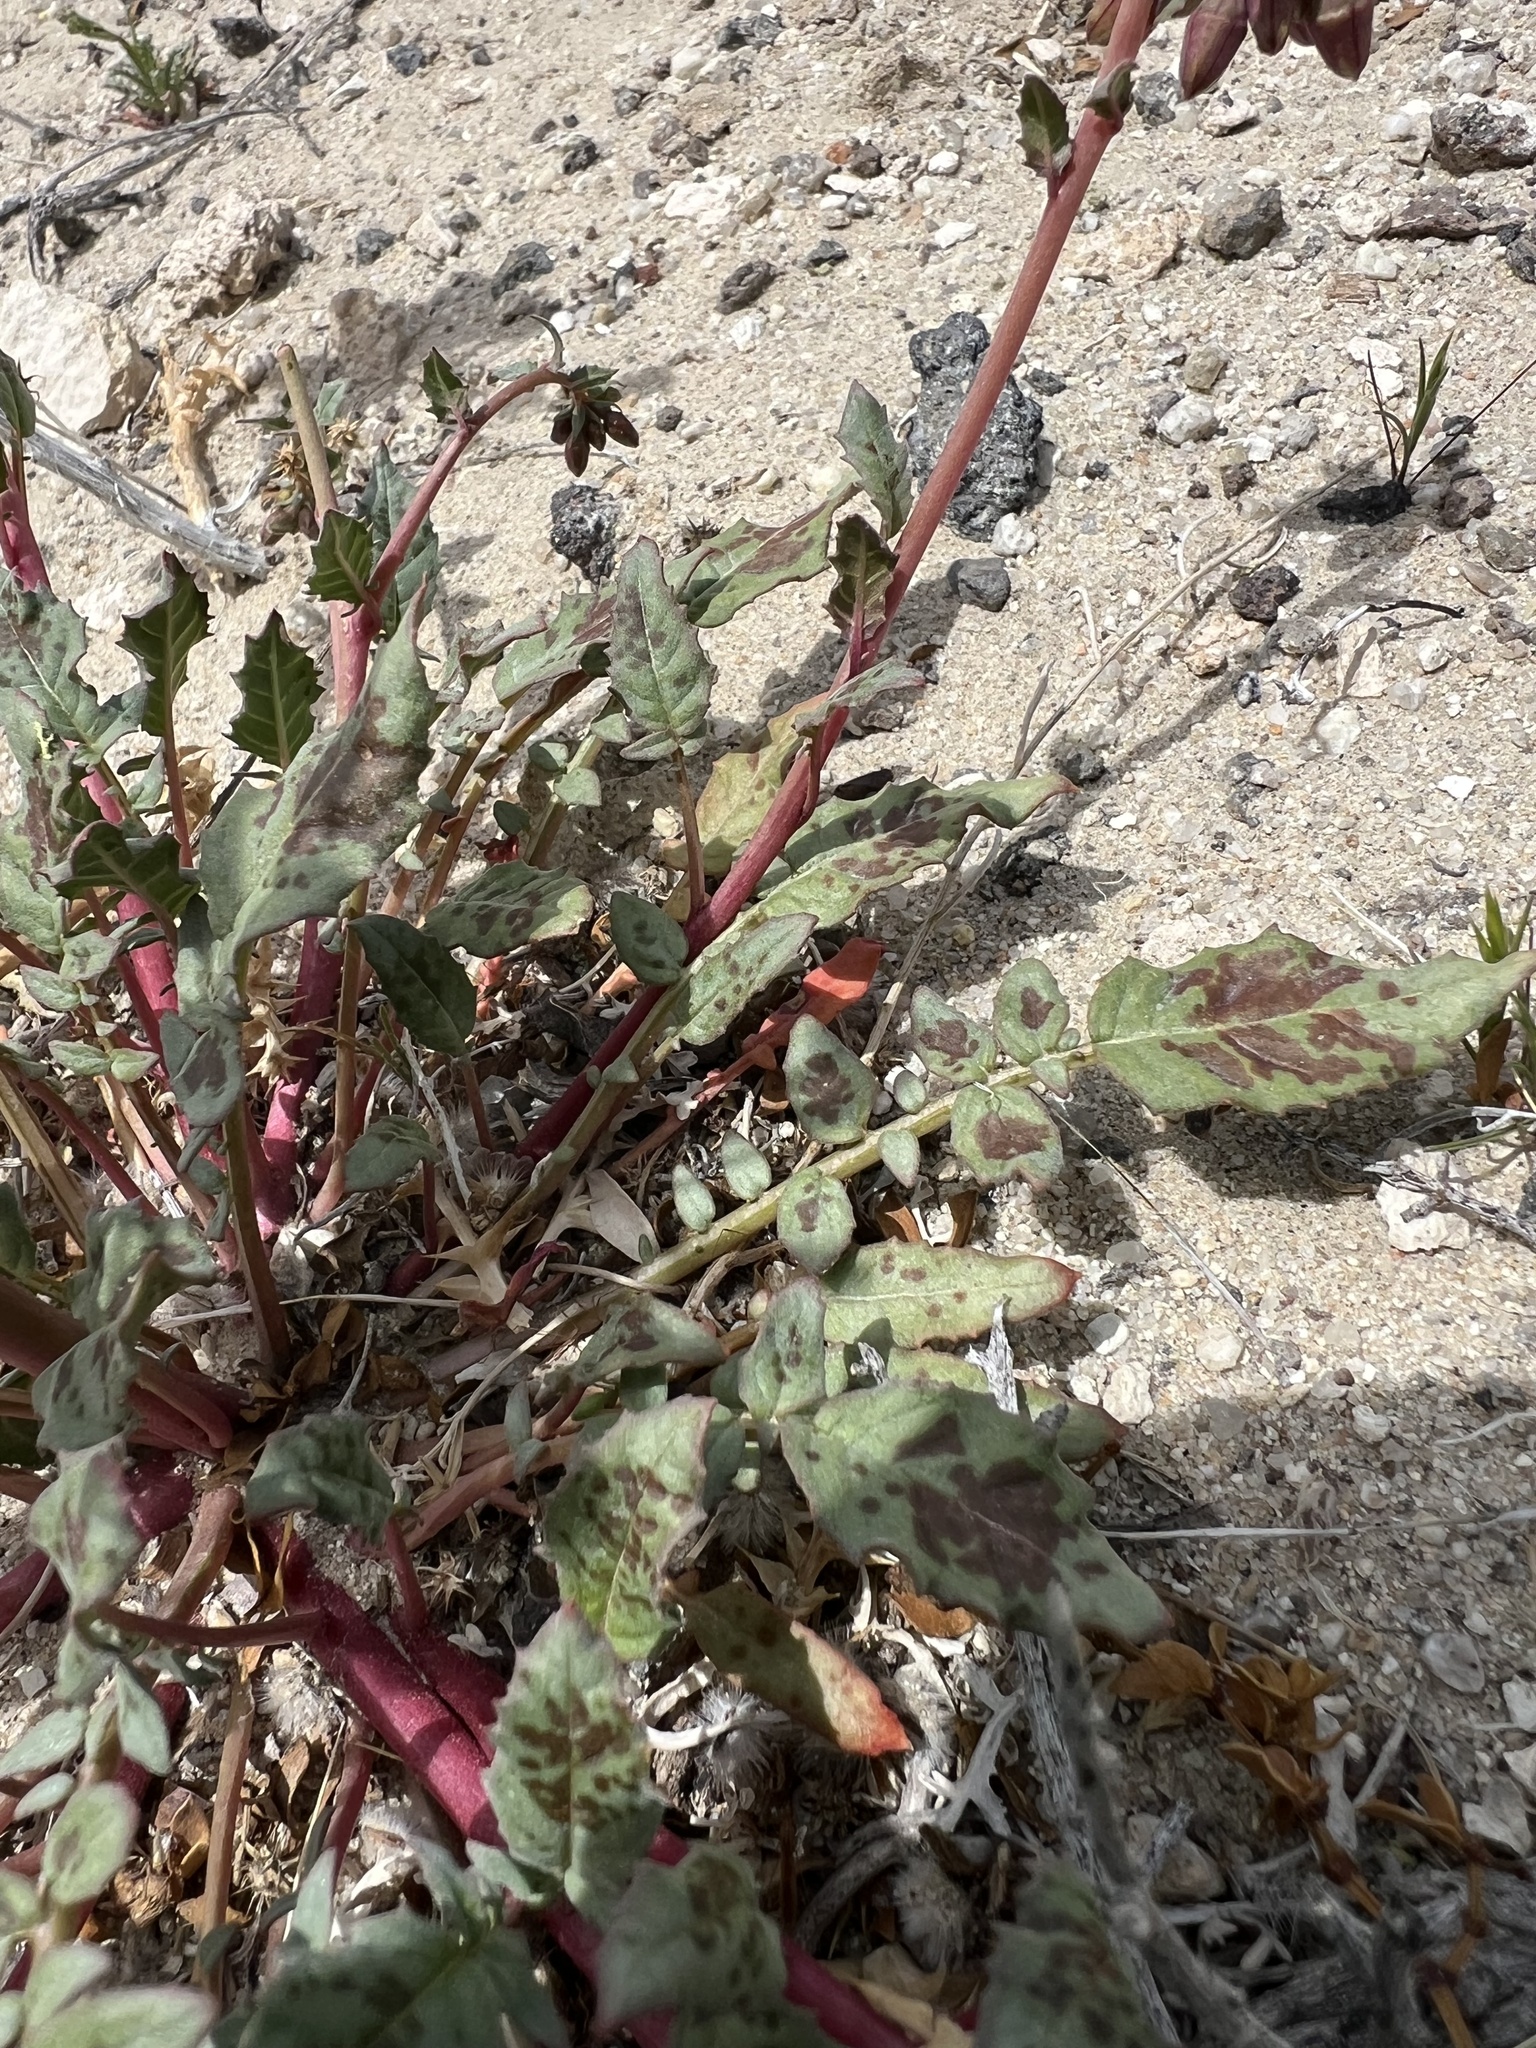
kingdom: Plantae
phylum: Tracheophyta
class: Magnoliopsida
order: Myrtales
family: Onagraceae
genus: Chylismia
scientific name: Chylismia claviformis
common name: Browneyes
